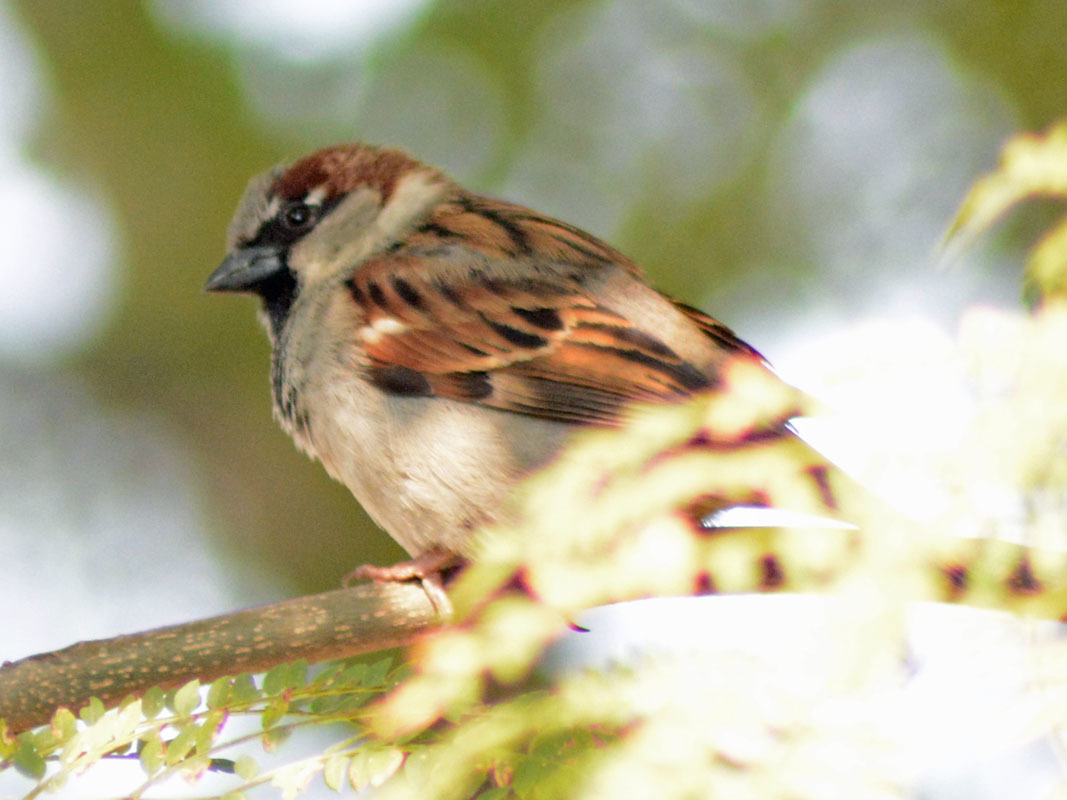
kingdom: Animalia
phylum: Chordata
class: Aves
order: Passeriformes
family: Passeridae
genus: Passer
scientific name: Passer domesticus
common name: House sparrow
